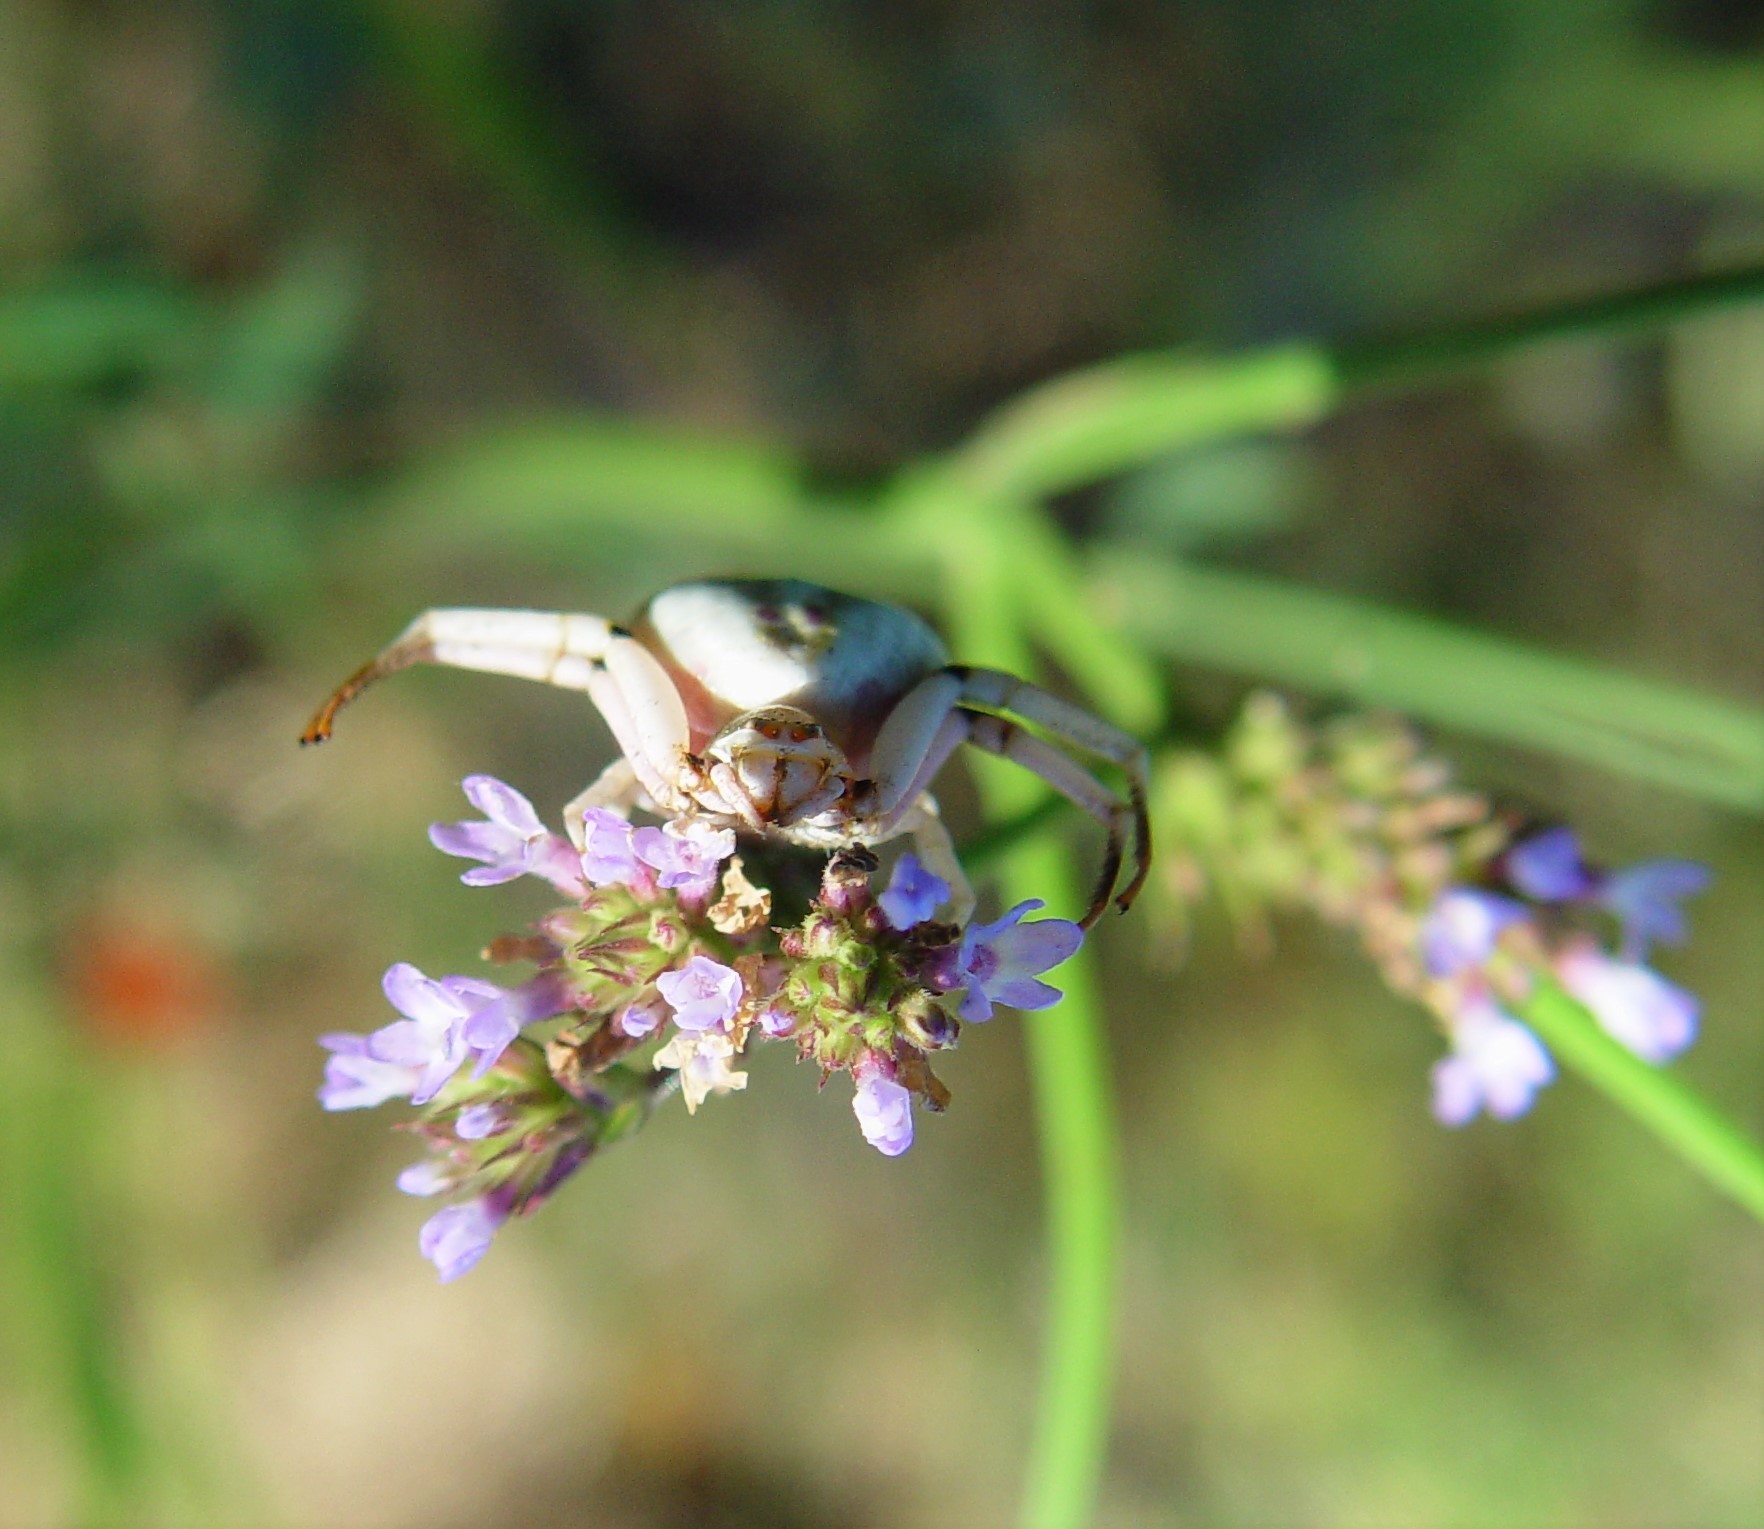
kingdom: Animalia
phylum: Arthropoda
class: Arachnida
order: Araneae
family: Thomisidae
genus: Misumenoides
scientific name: Misumenoides formosipes
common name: White-banded crab spider
